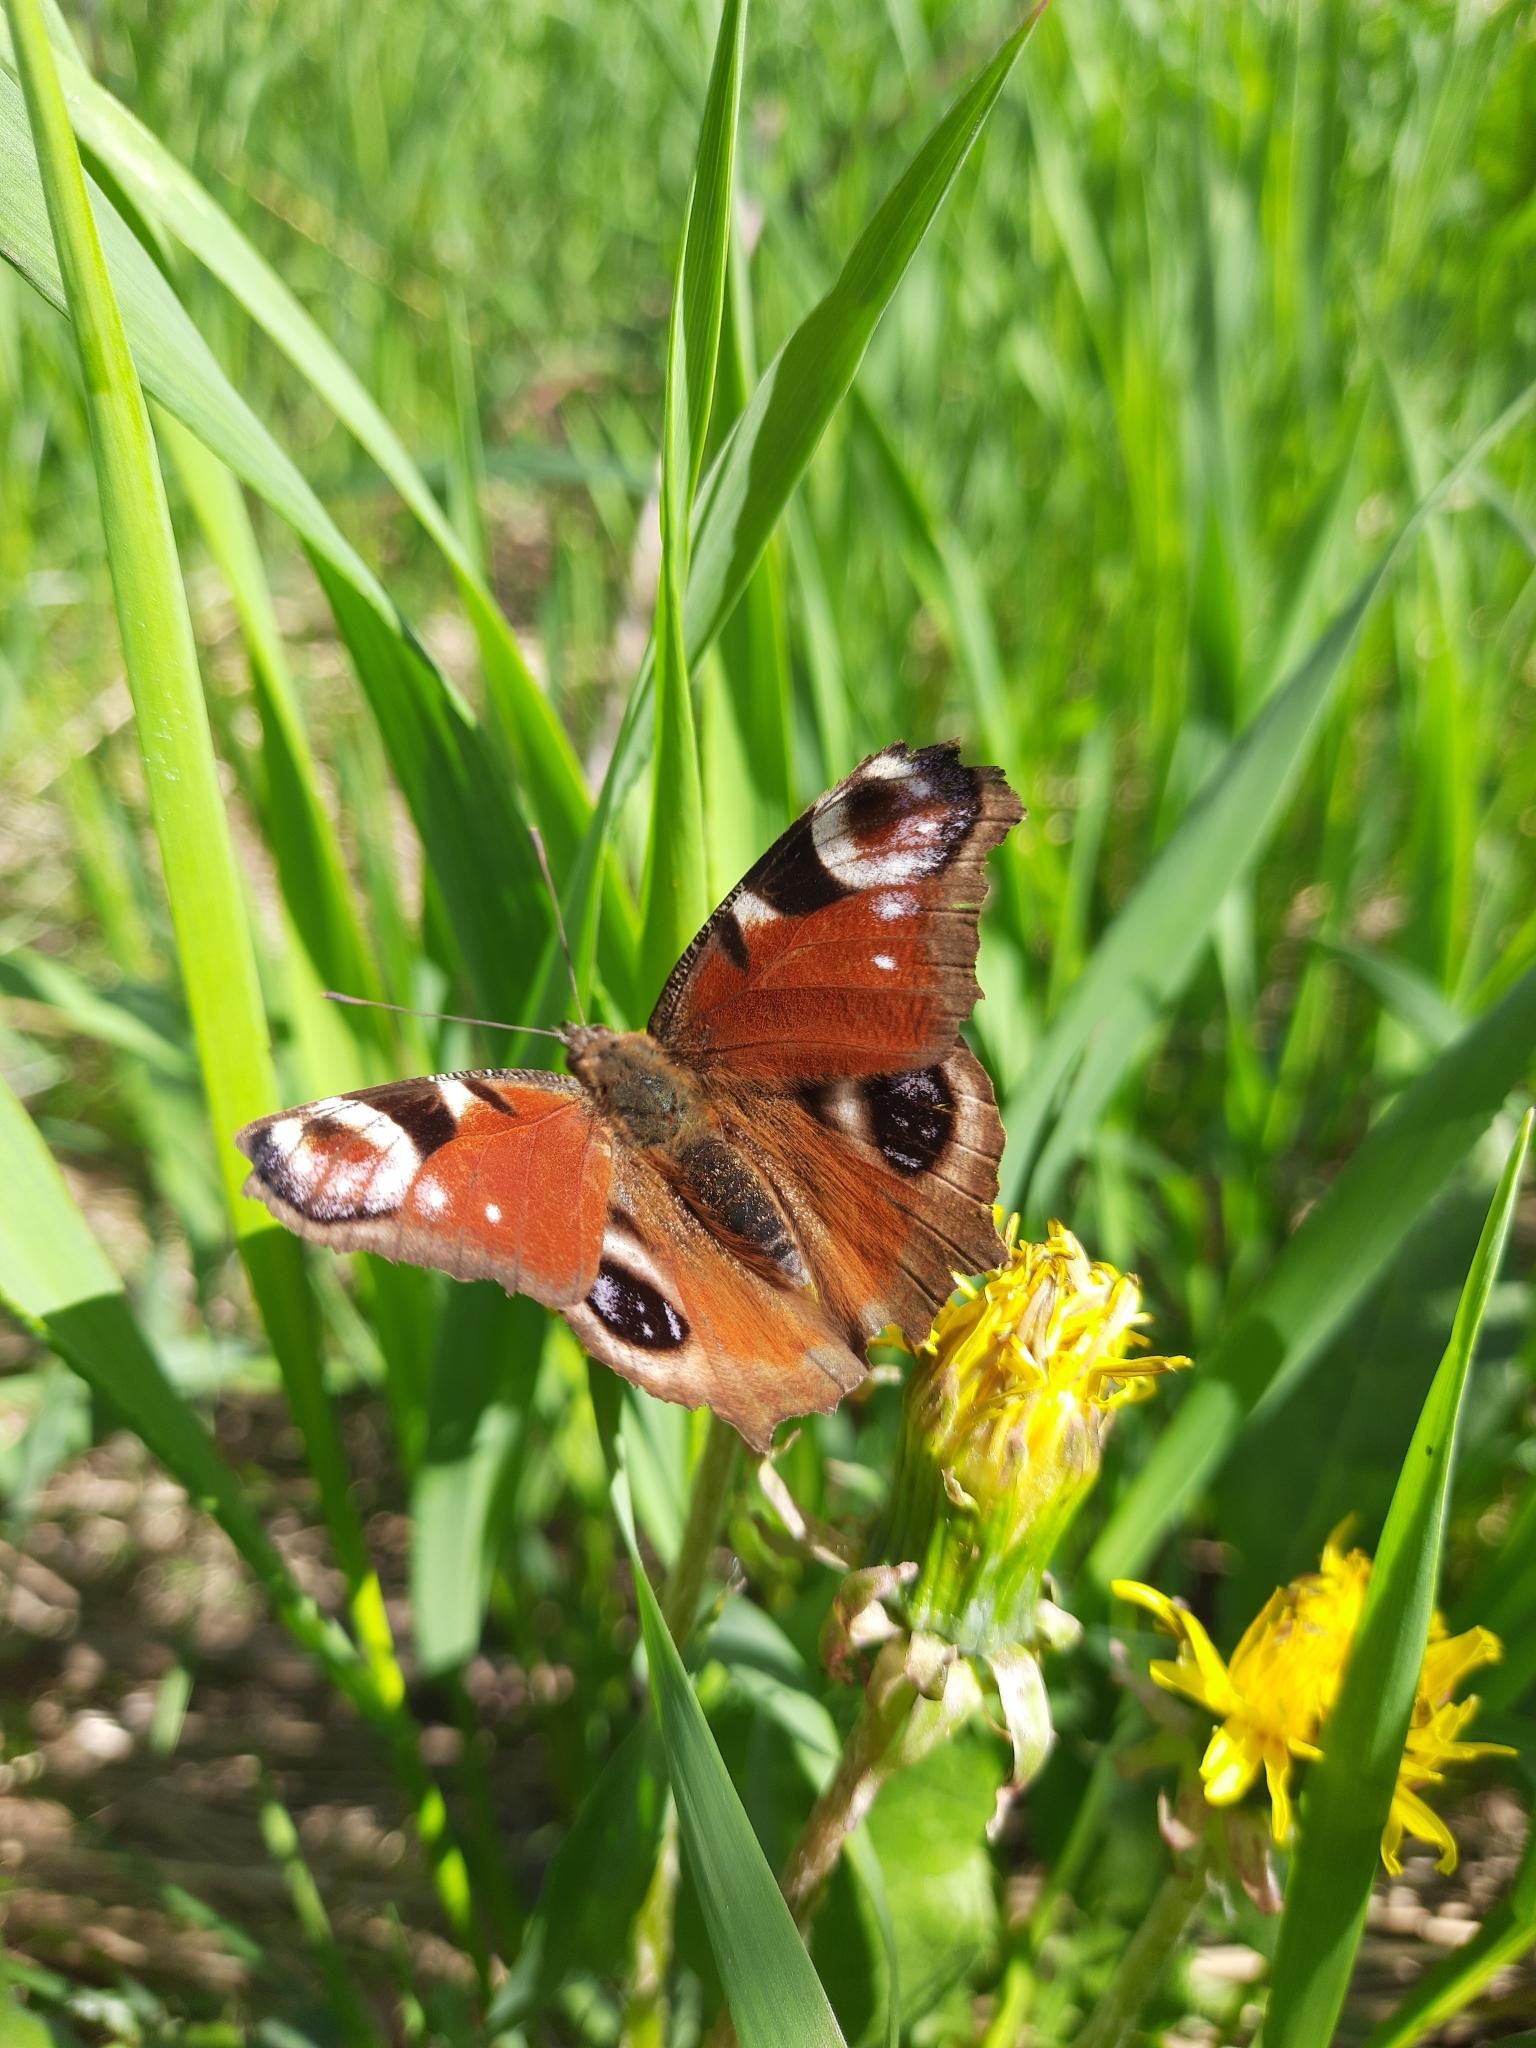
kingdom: Animalia
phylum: Arthropoda
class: Insecta
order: Lepidoptera
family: Nymphalidae
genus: Aglais
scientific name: Aglais io
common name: Peacock
